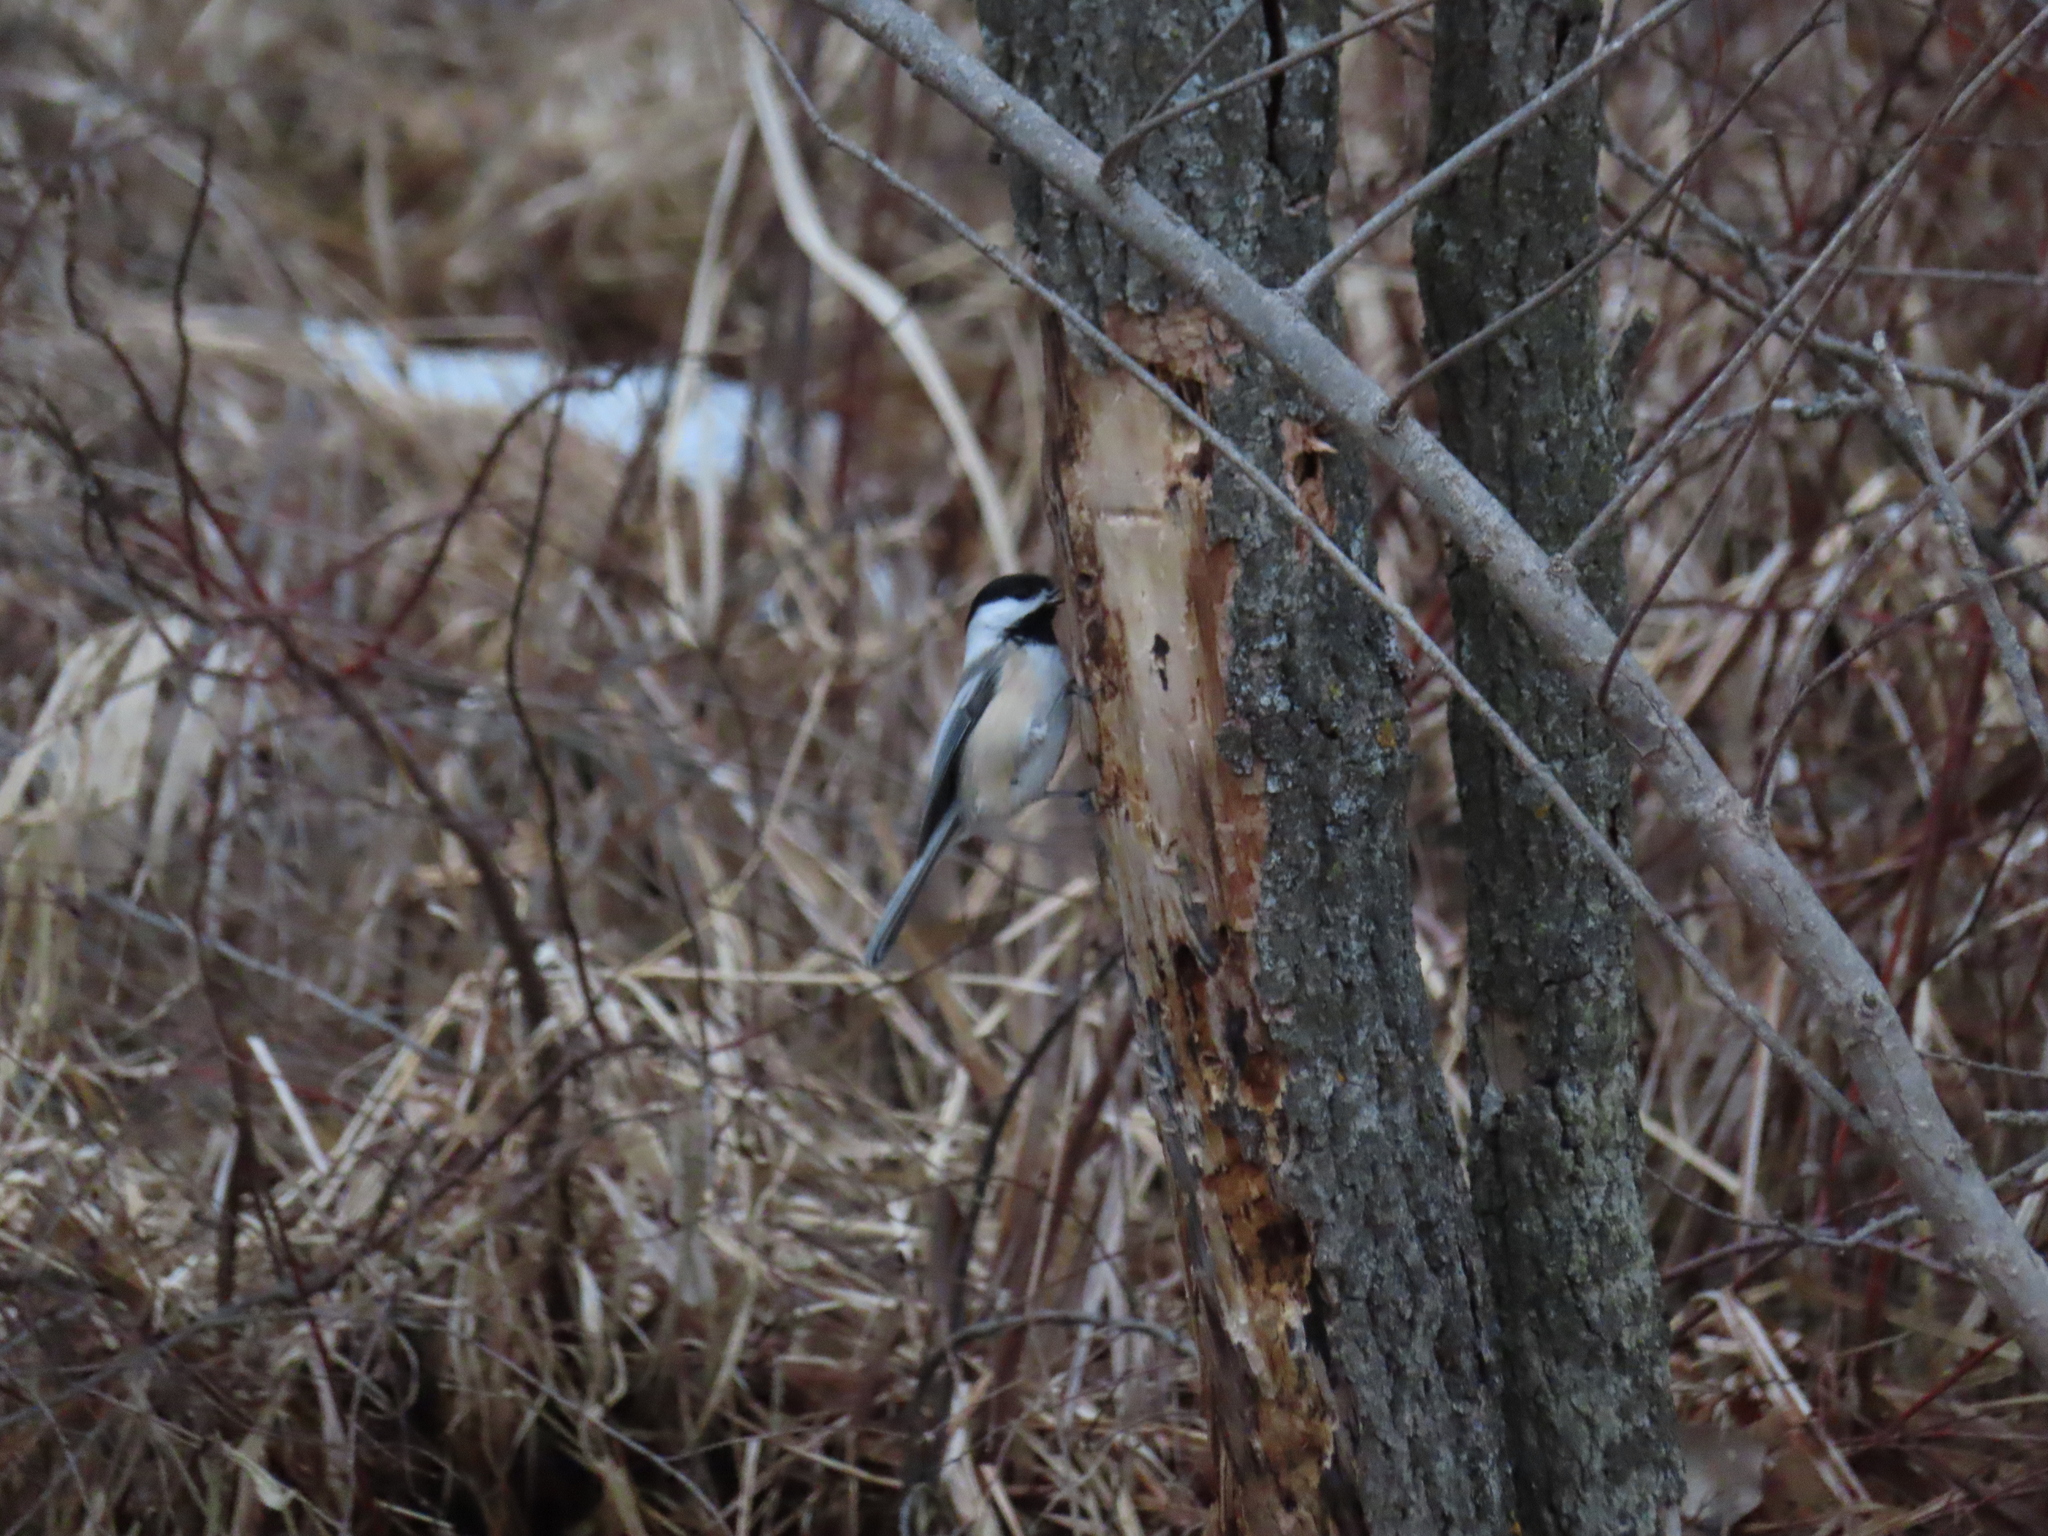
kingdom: Animalia
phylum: Chordata
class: Aves
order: Passeriformes
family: Paridae
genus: Poecile
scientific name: Poecile atricapillus
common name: Black-capped chickadee
